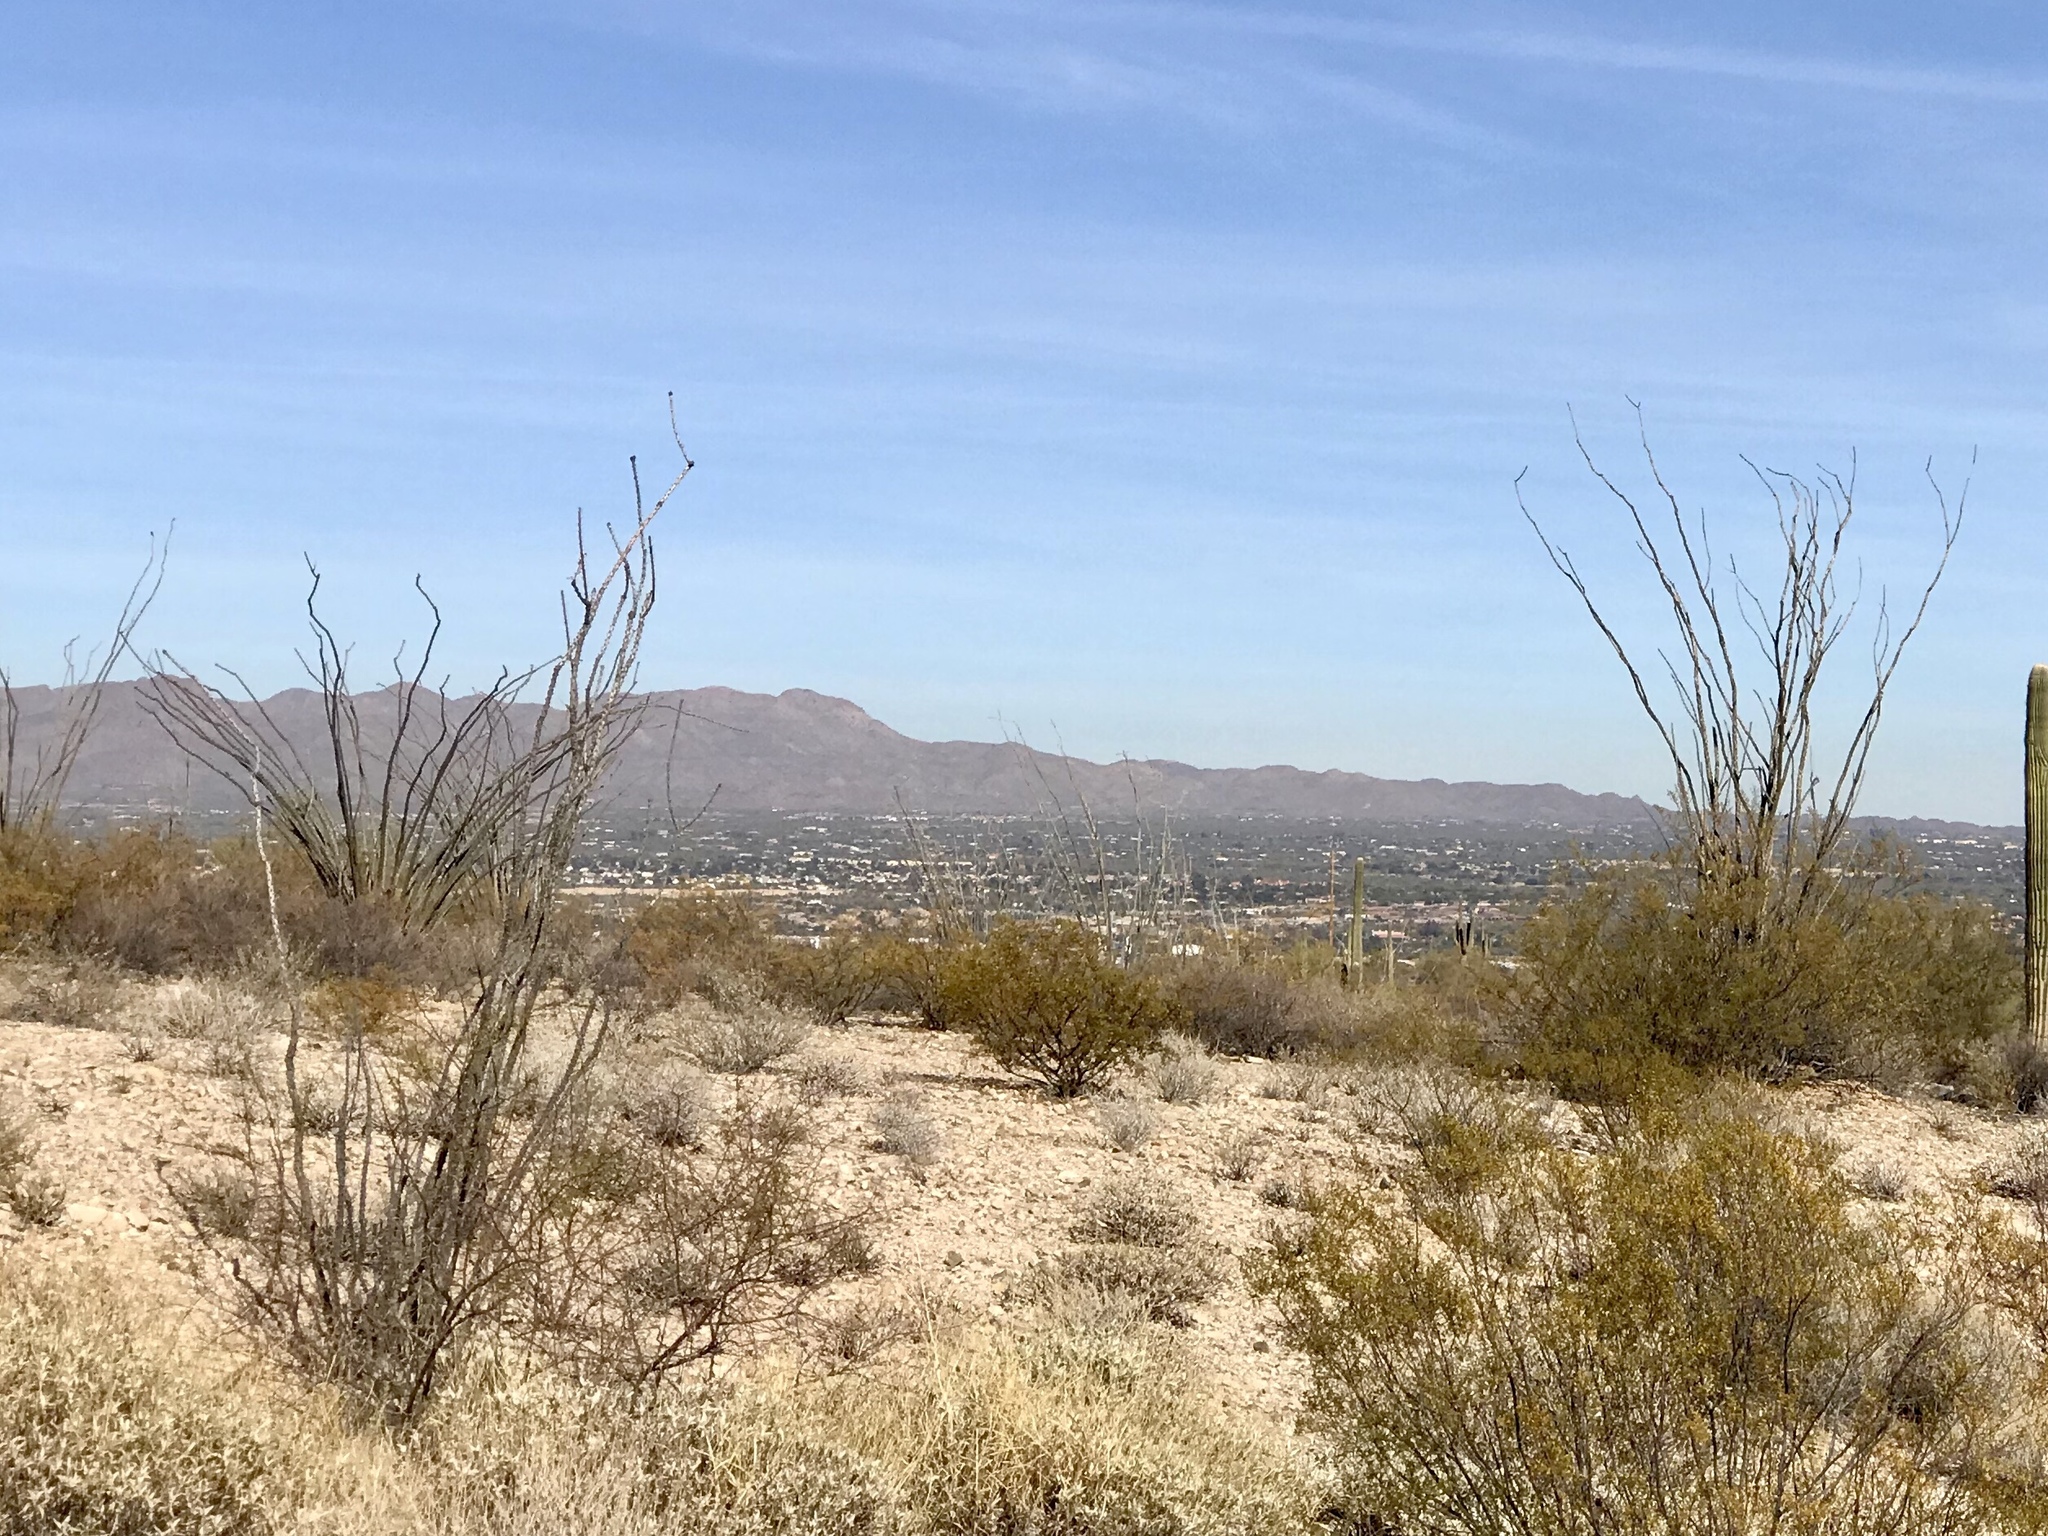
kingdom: Plantae
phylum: Tracheophyta
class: Magnoliopsida
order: Ericales
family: Fouquieriaceae
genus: Fouquieria
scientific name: Fouquieria splendens
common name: Vine-cactus
